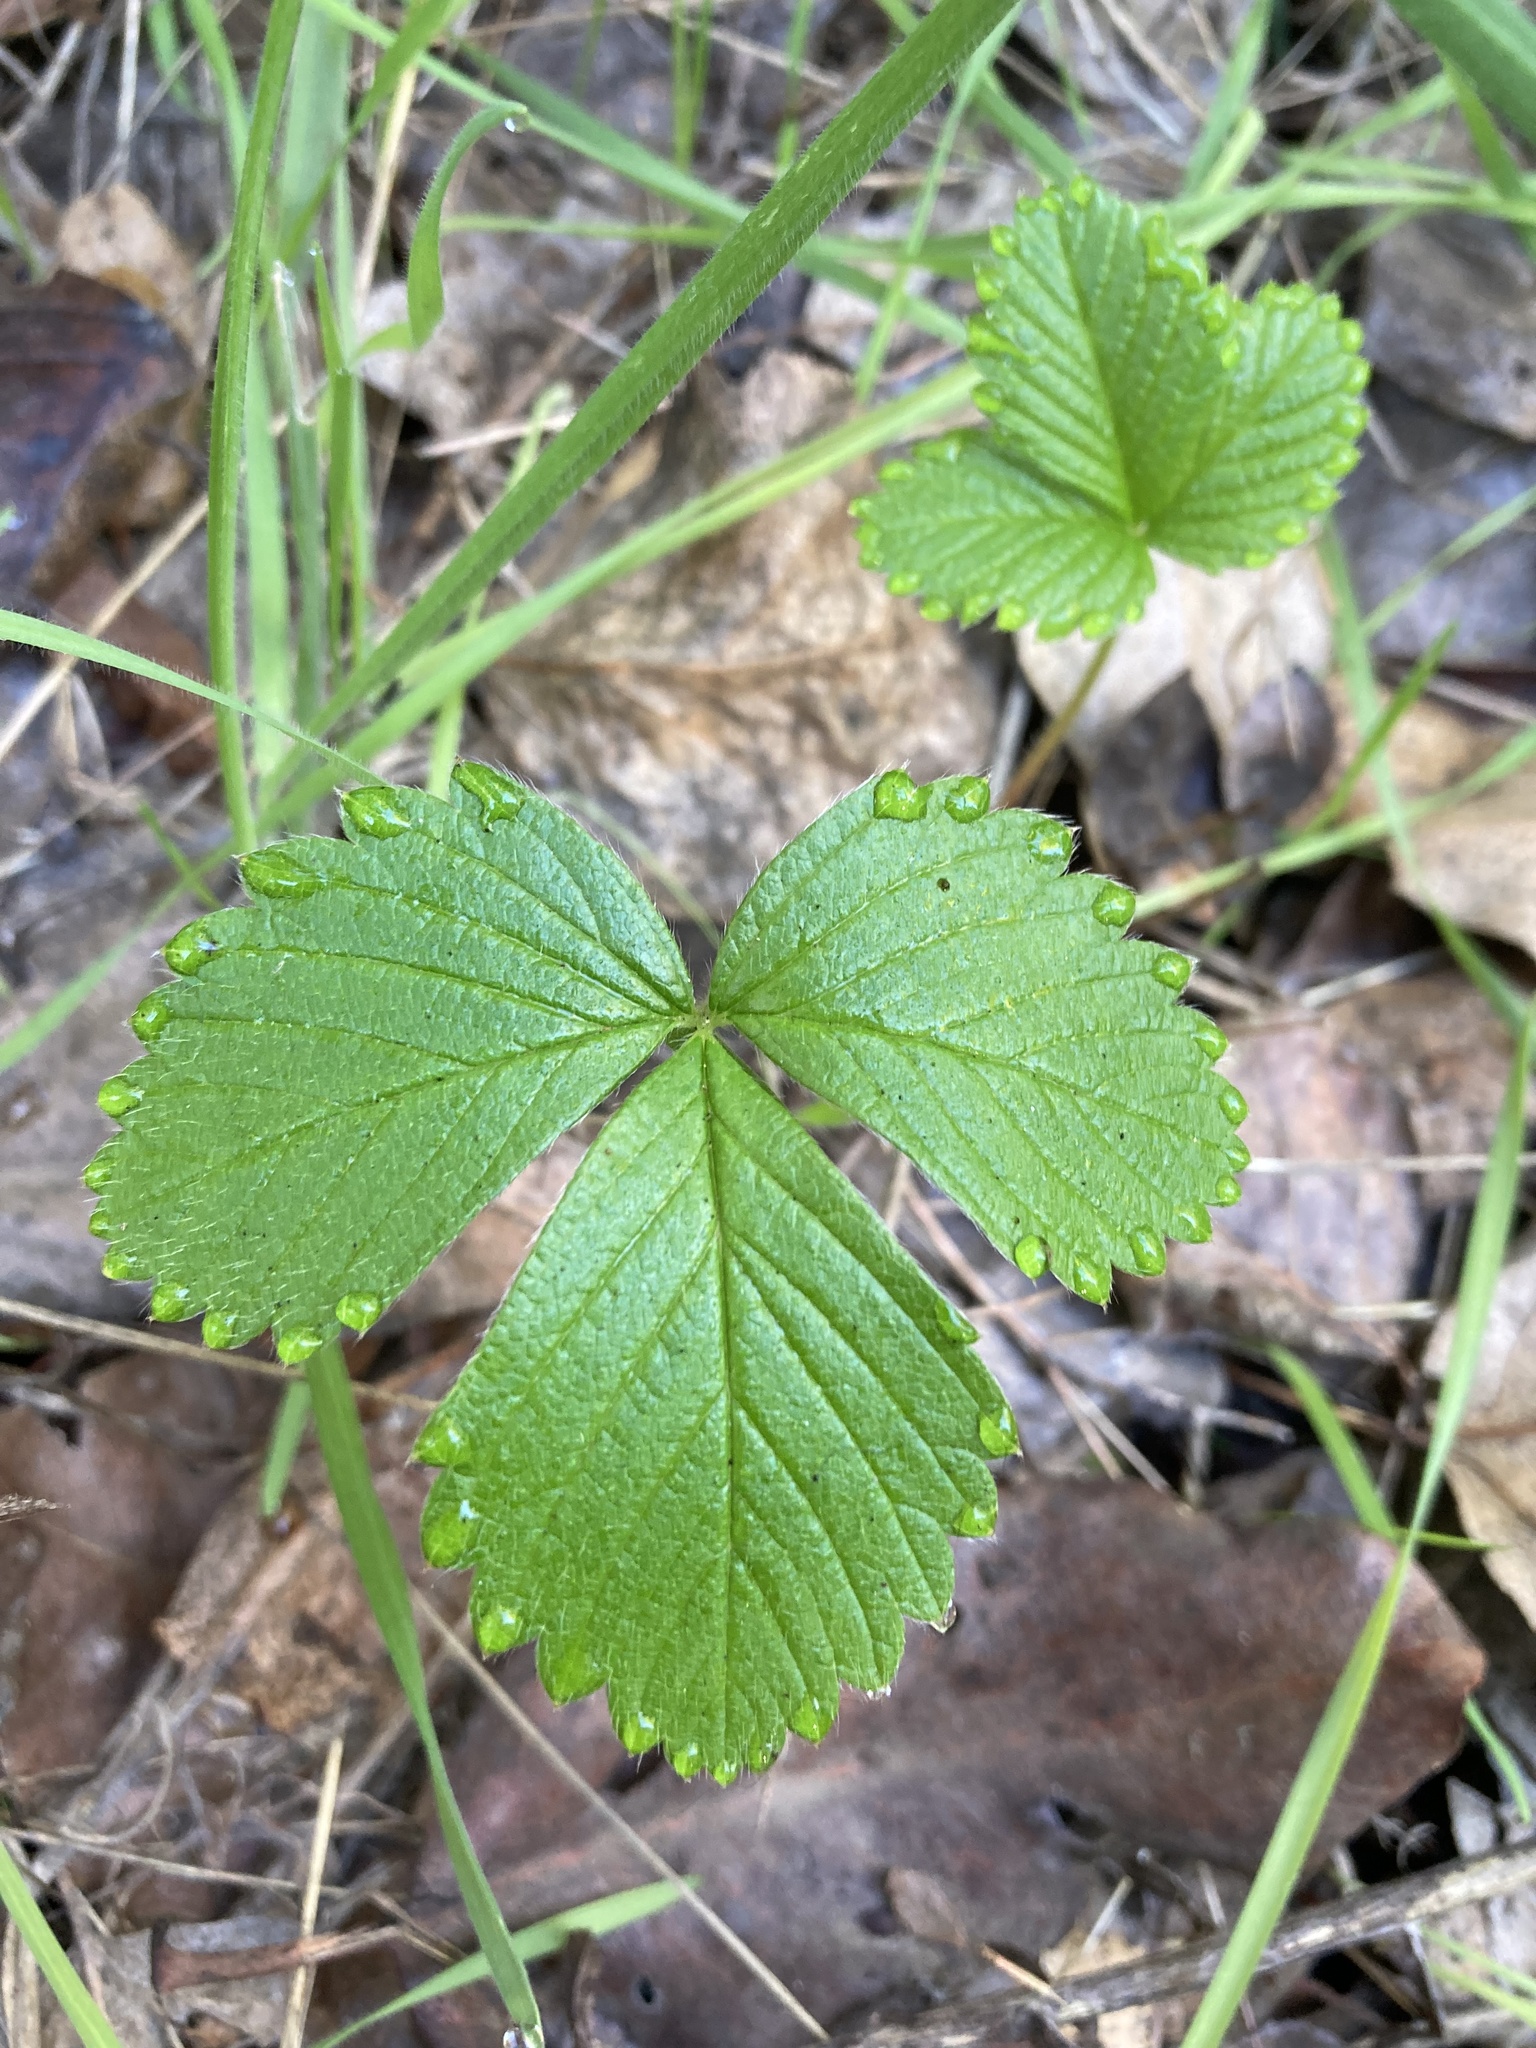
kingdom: Plantae
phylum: Tracheophyta
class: Magnoliopsida
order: Rosales
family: Rosaceae
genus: Fragaria
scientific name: Fragaria vesca
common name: Wild strawberry
